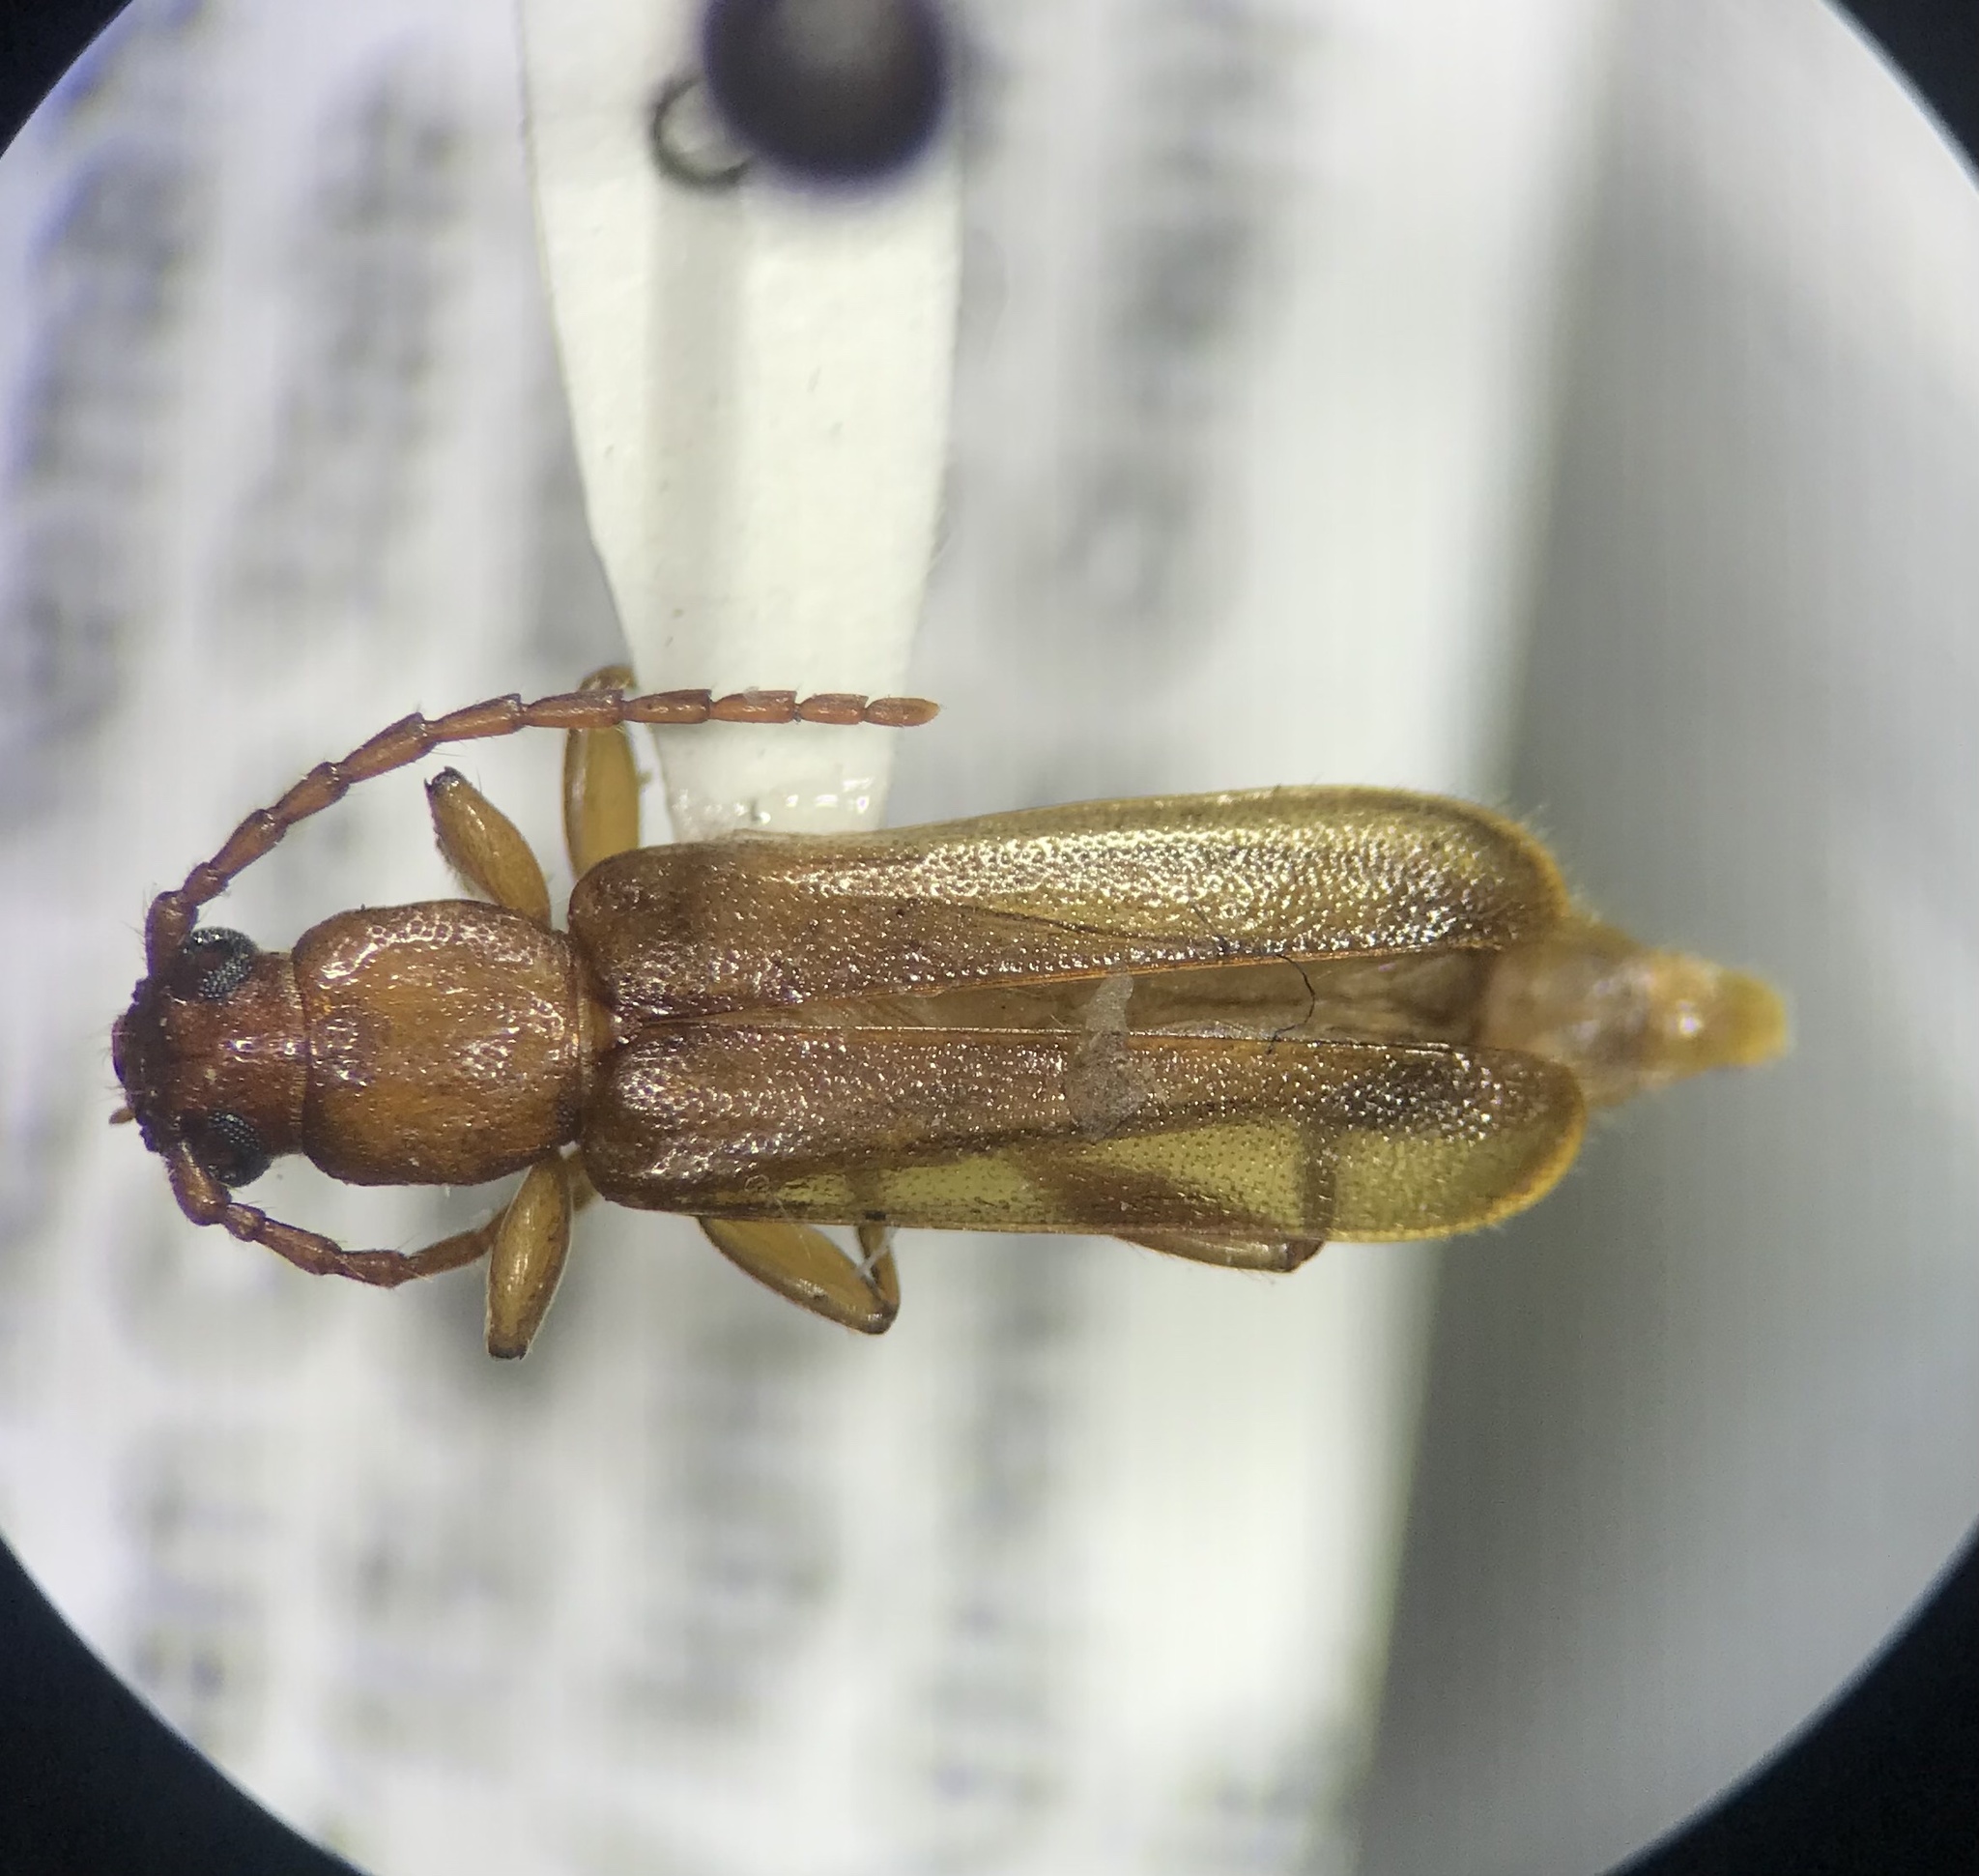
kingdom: Animalia
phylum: Arthropoda
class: Insecta
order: Coleoptera
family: Cerambycidae
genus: Smodicum
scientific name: Smodicum cucujiforme
